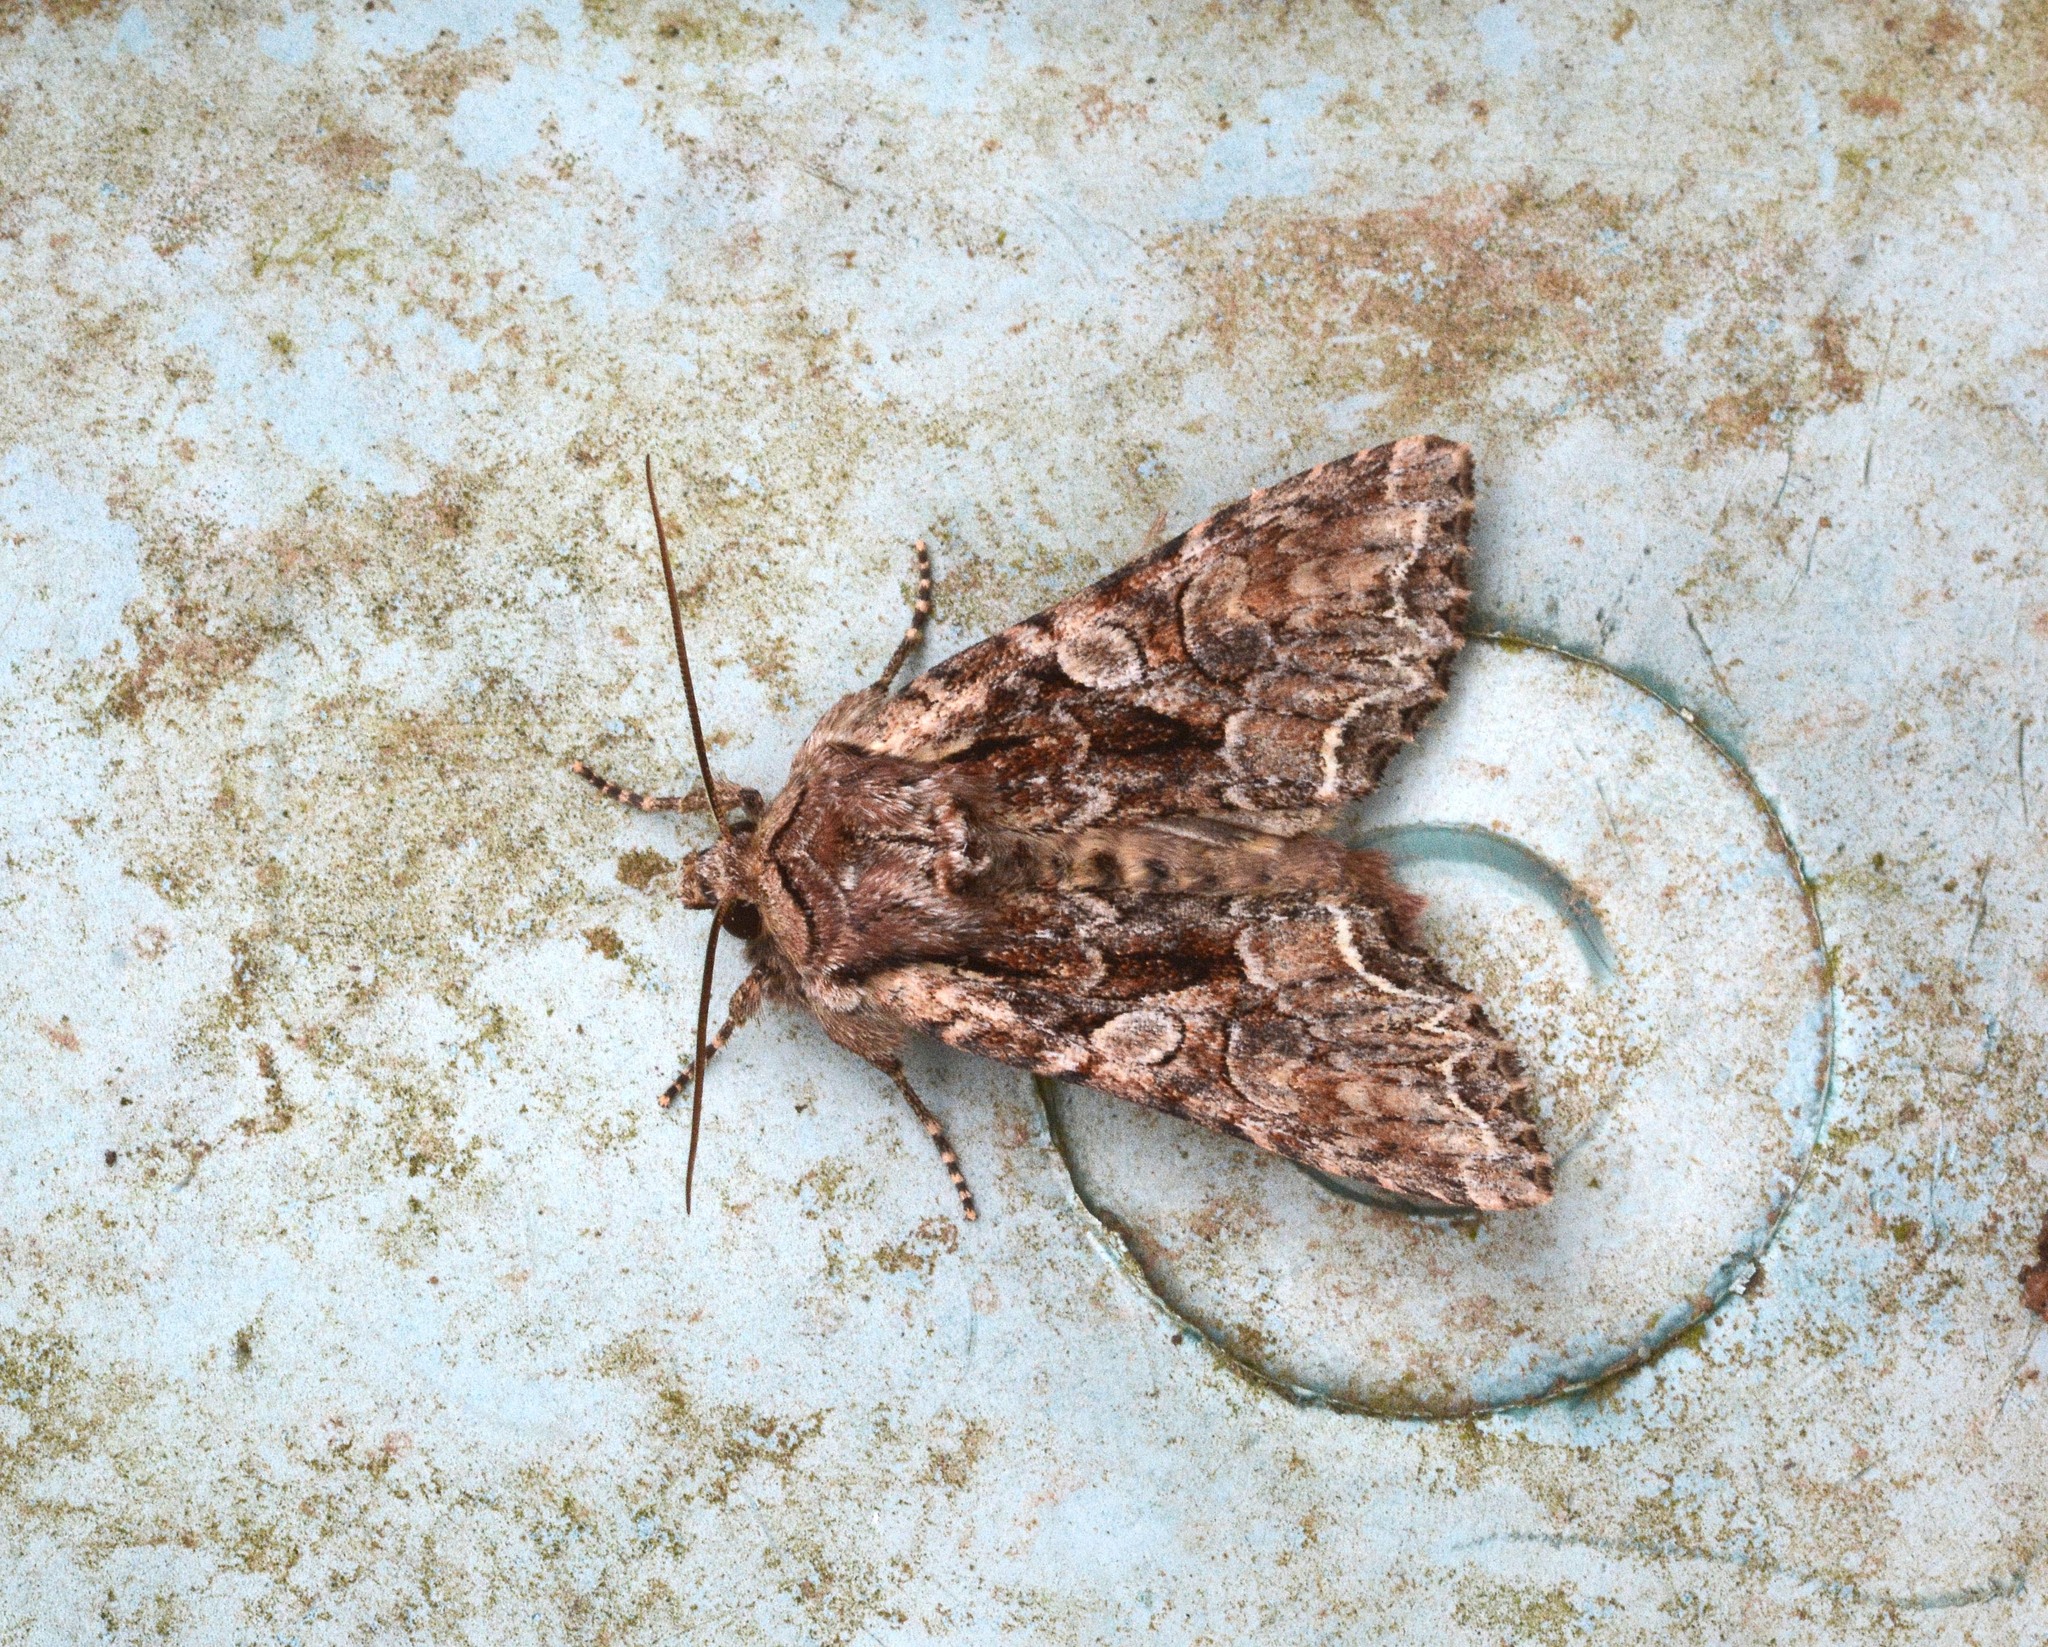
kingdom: Animalia
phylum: Arthropoda
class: Insecta
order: Lepidoptera
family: Noctuidae
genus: Lacanobia
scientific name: Lacanobia thalassina
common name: Pale-shouldered brocade
